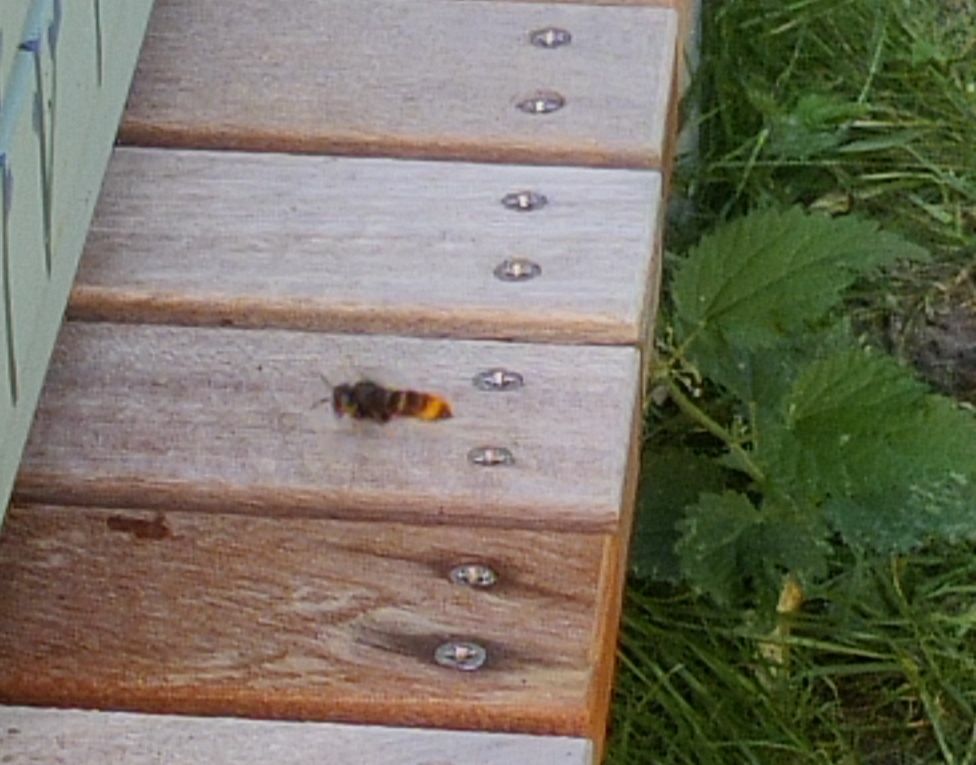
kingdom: Animalia
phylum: Arthropoda
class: Insecta
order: Hymenoptera
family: Vespidae
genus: Vespa
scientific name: Vespa velutina
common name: Asian hornet
